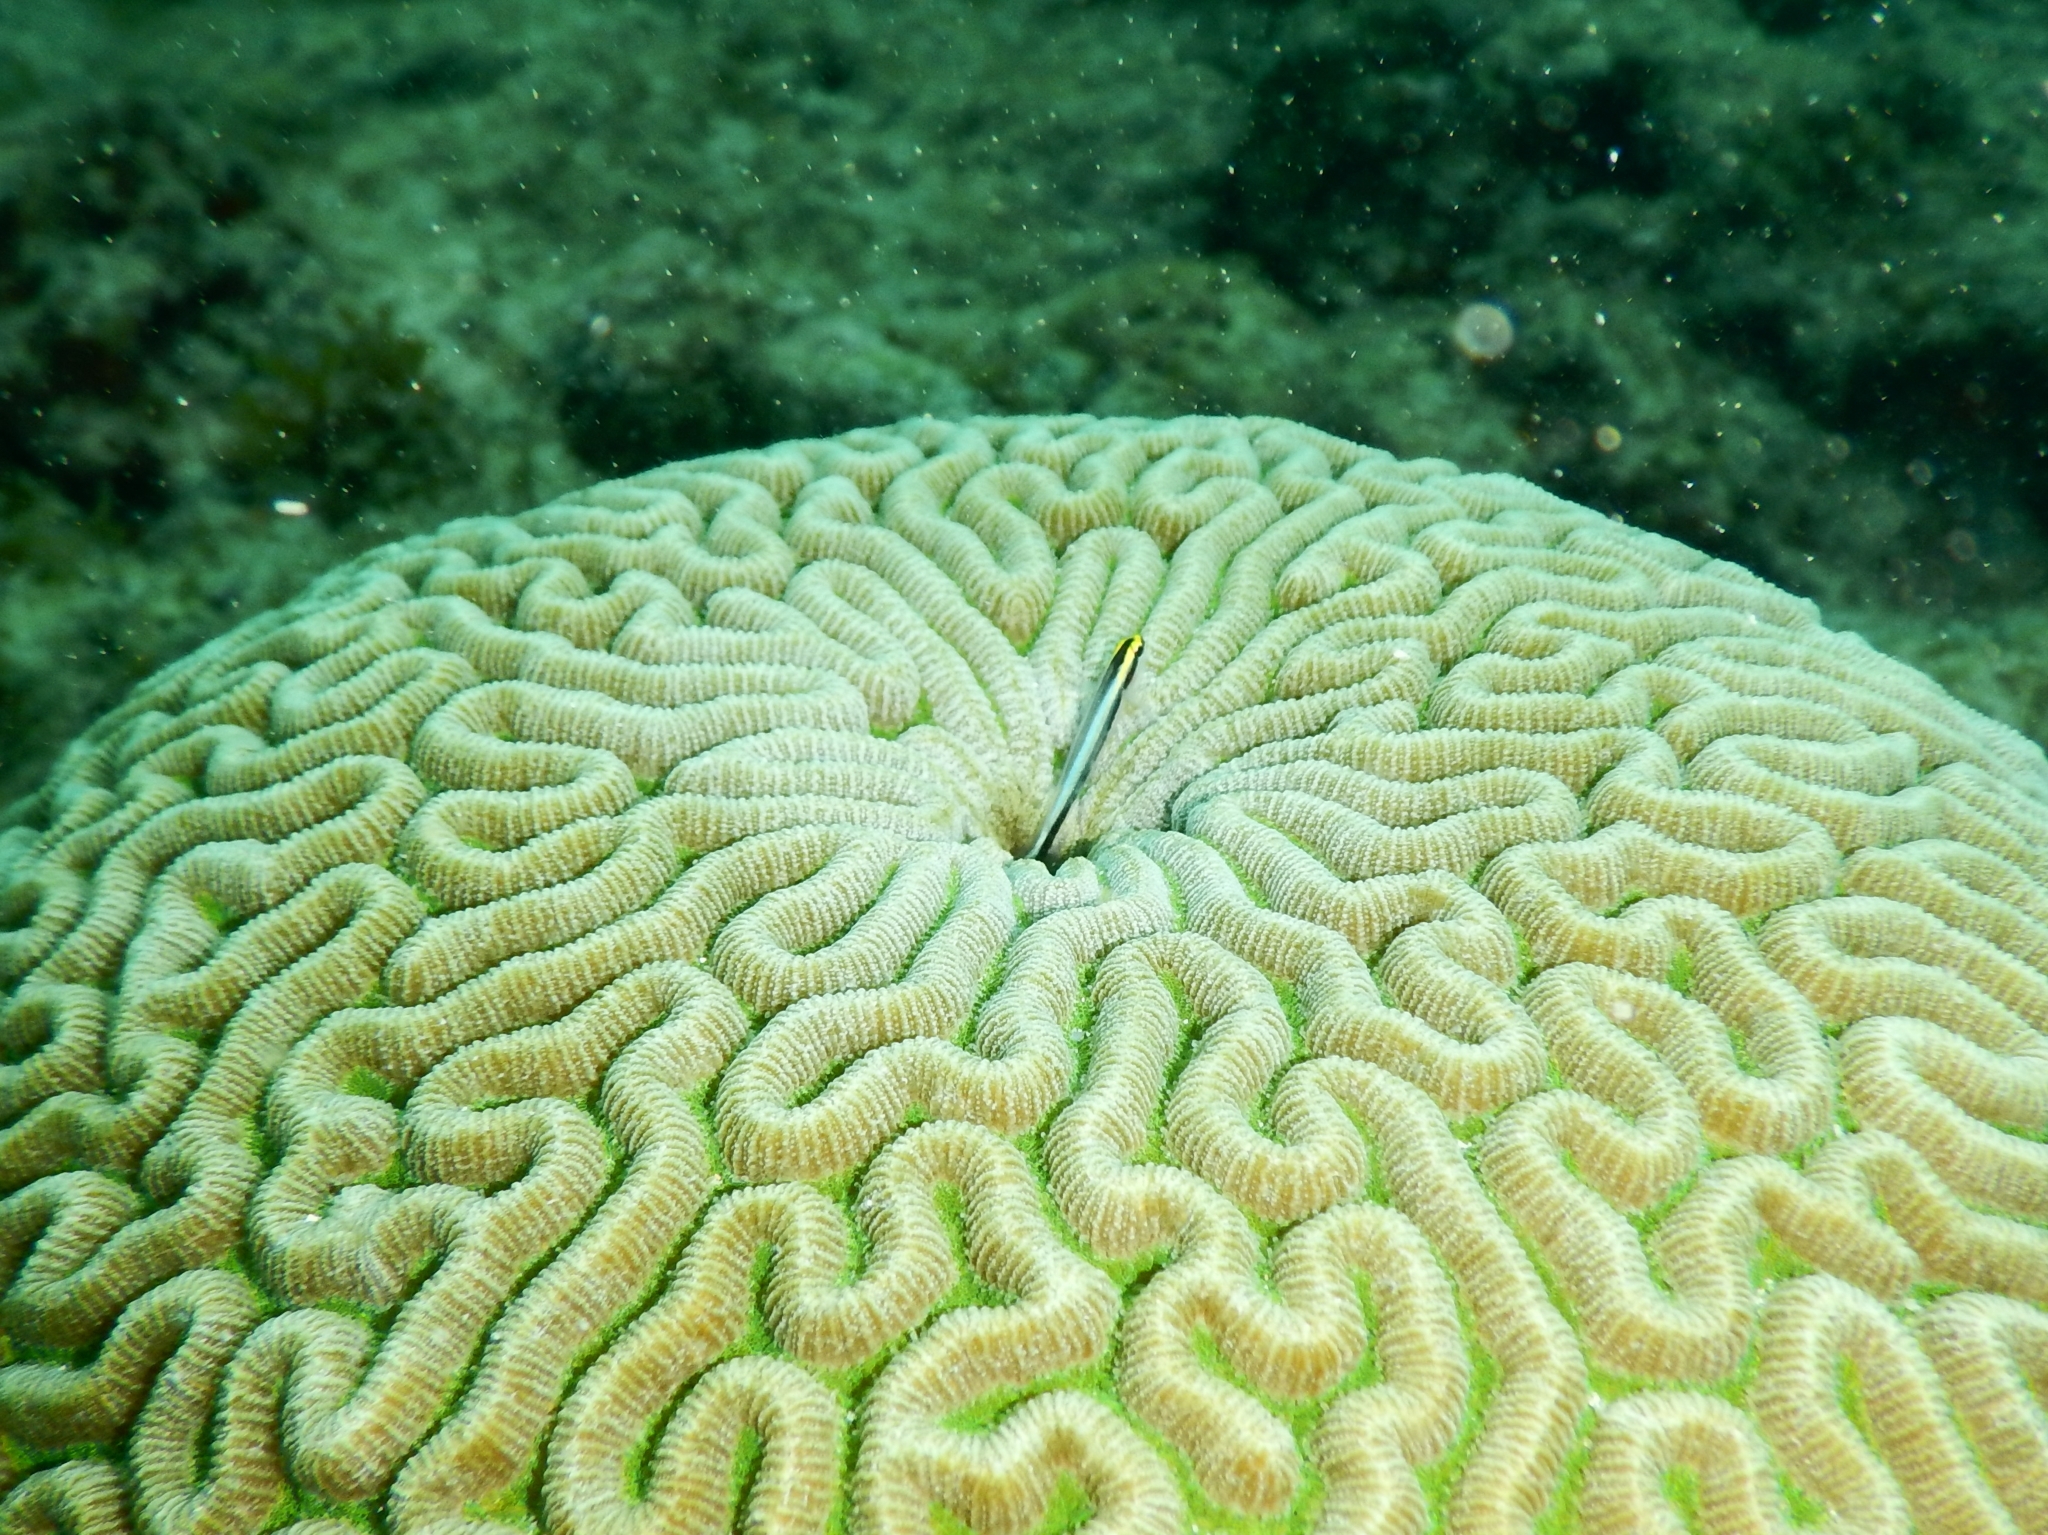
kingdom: Animalia
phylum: Chordata
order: Perciformes
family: Gobiidae
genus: Elacatinus
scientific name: Elacatinus evelynae
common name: Sharknose goby
